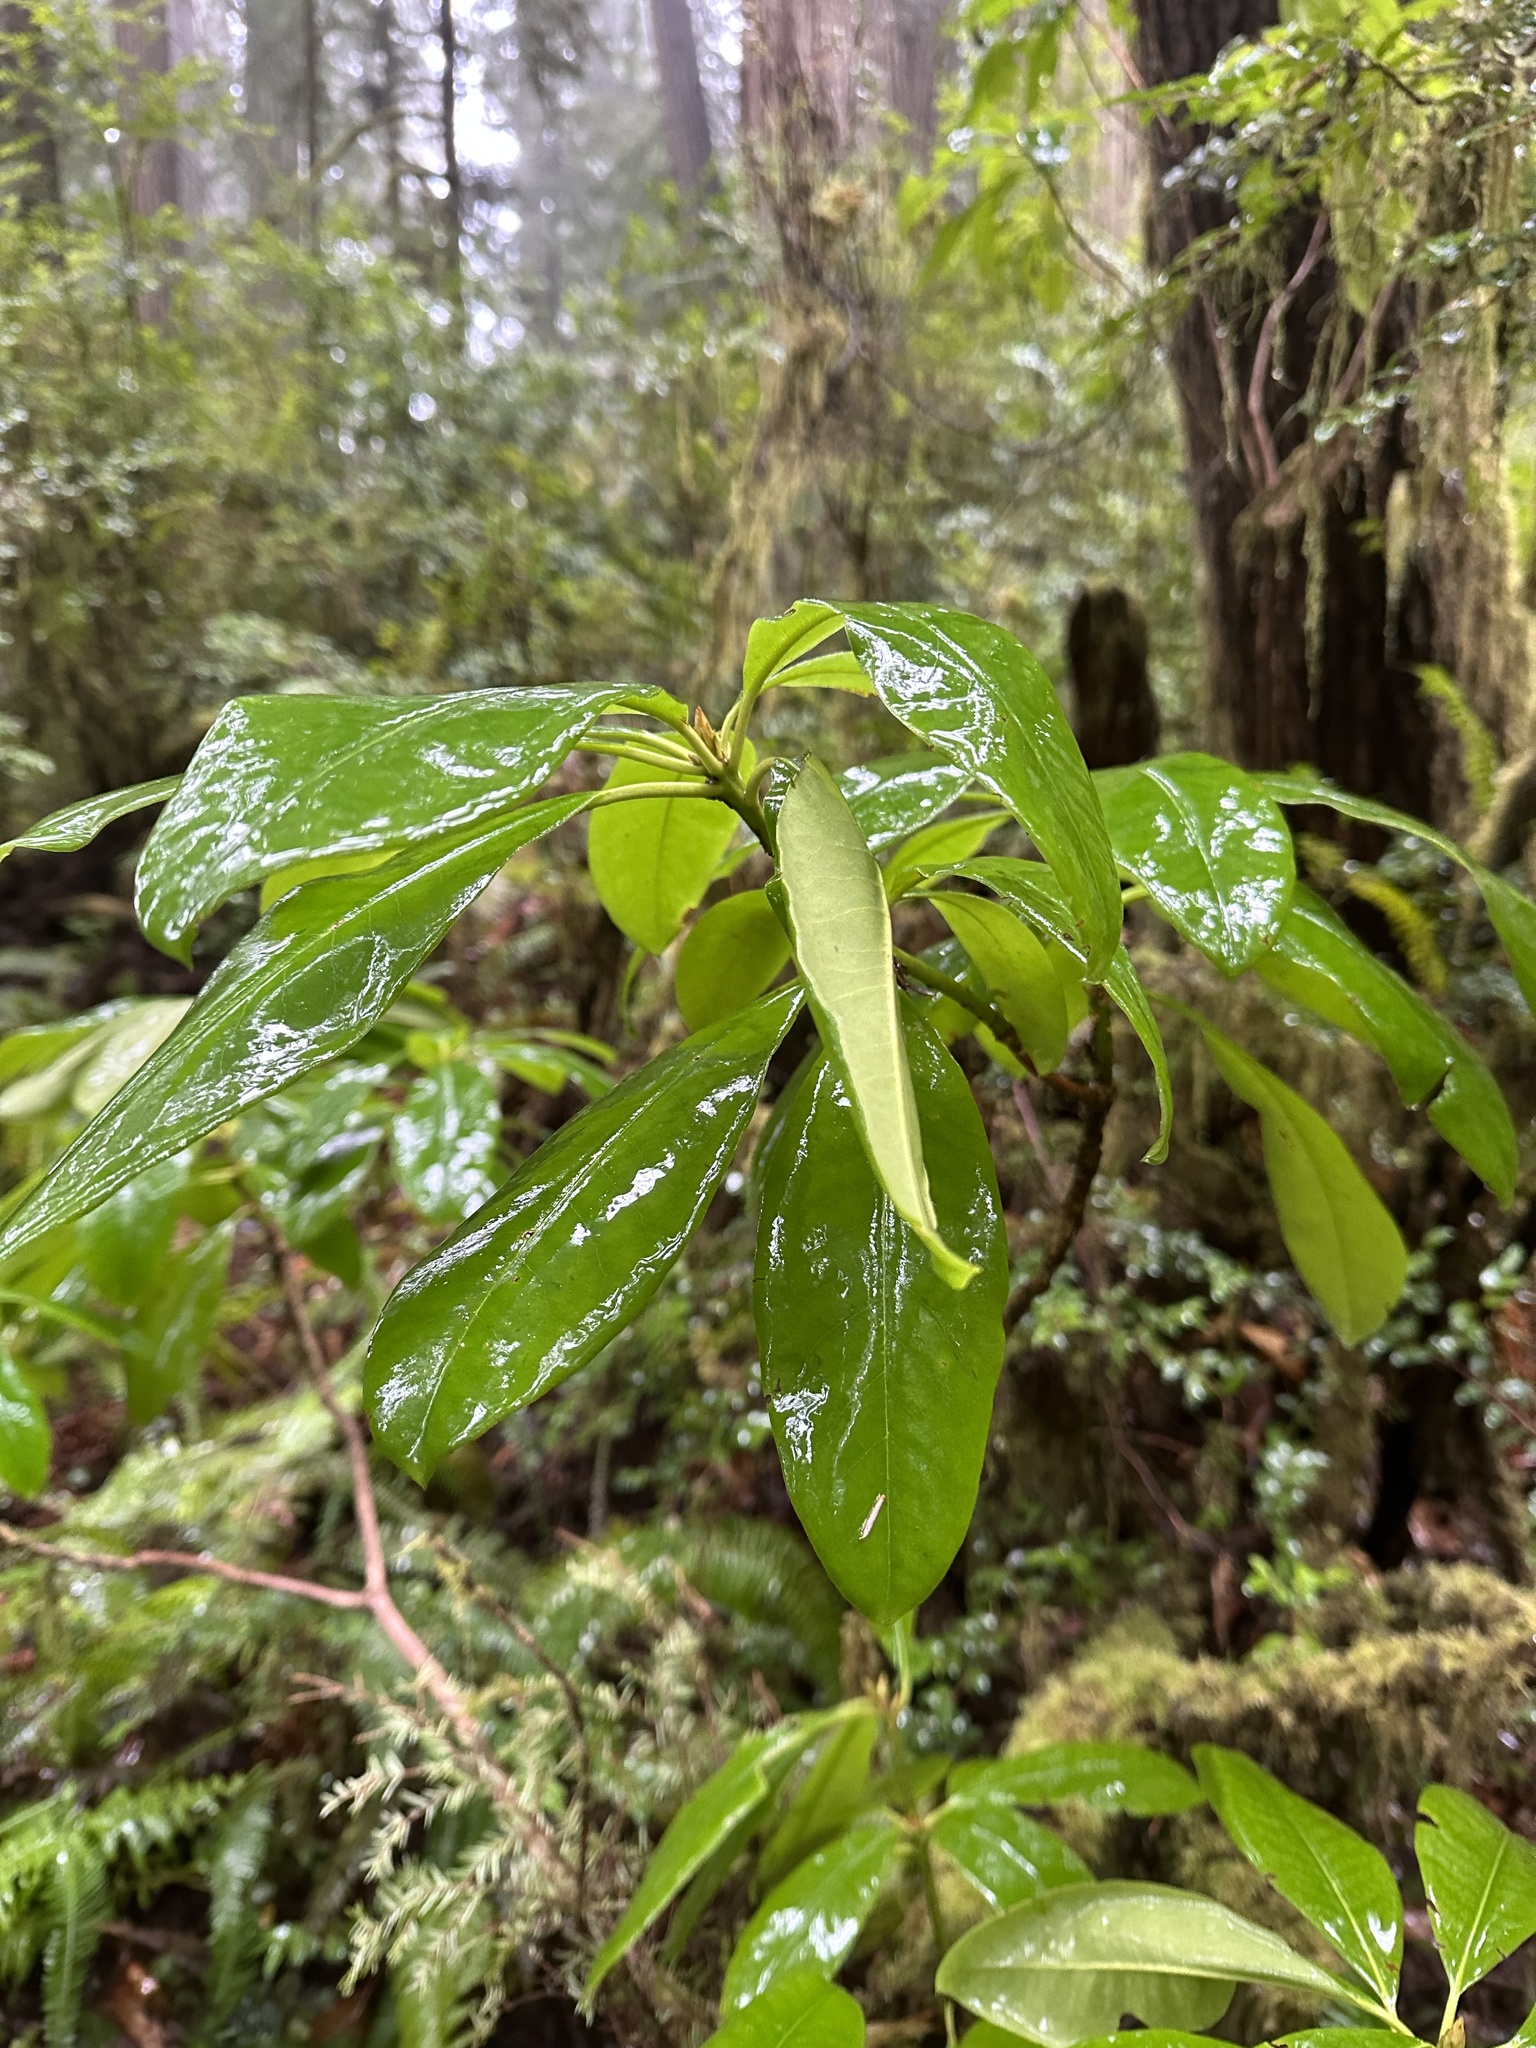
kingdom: Plantae
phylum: Tracheophyta
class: Magnoliopsida
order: Ericales
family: Ericaceae
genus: Rhododendron
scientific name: Rhododendron macrophyllum
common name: California rose bay
